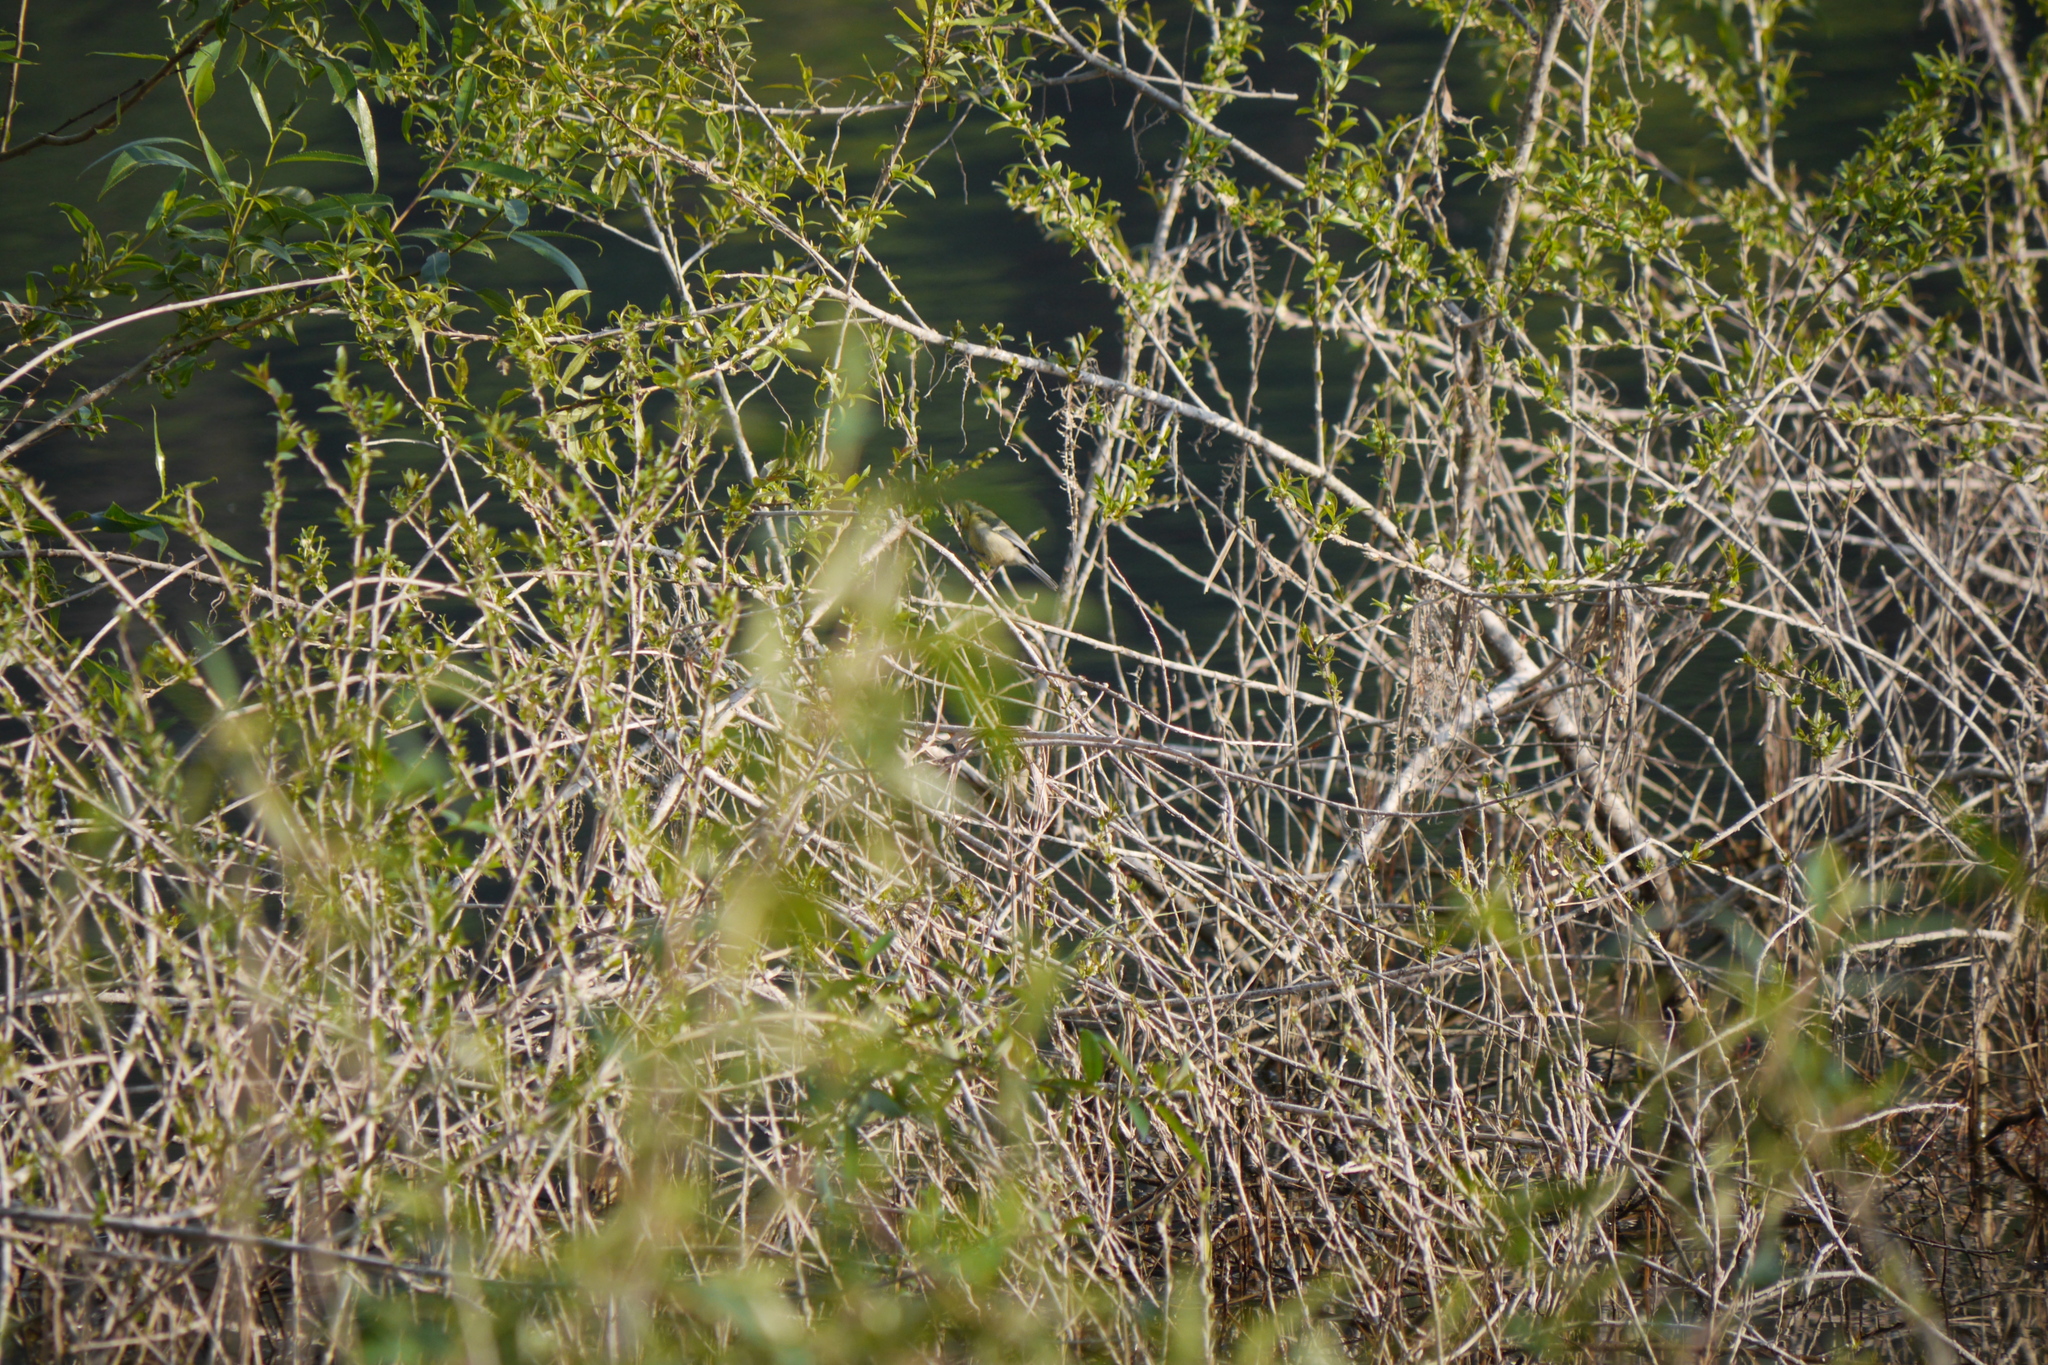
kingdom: Animalia
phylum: Chordata
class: Aves
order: Passeriformes
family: Paridae
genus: Cyanistes
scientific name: Cyanistes caeruleus
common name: Eurasian blue tit
